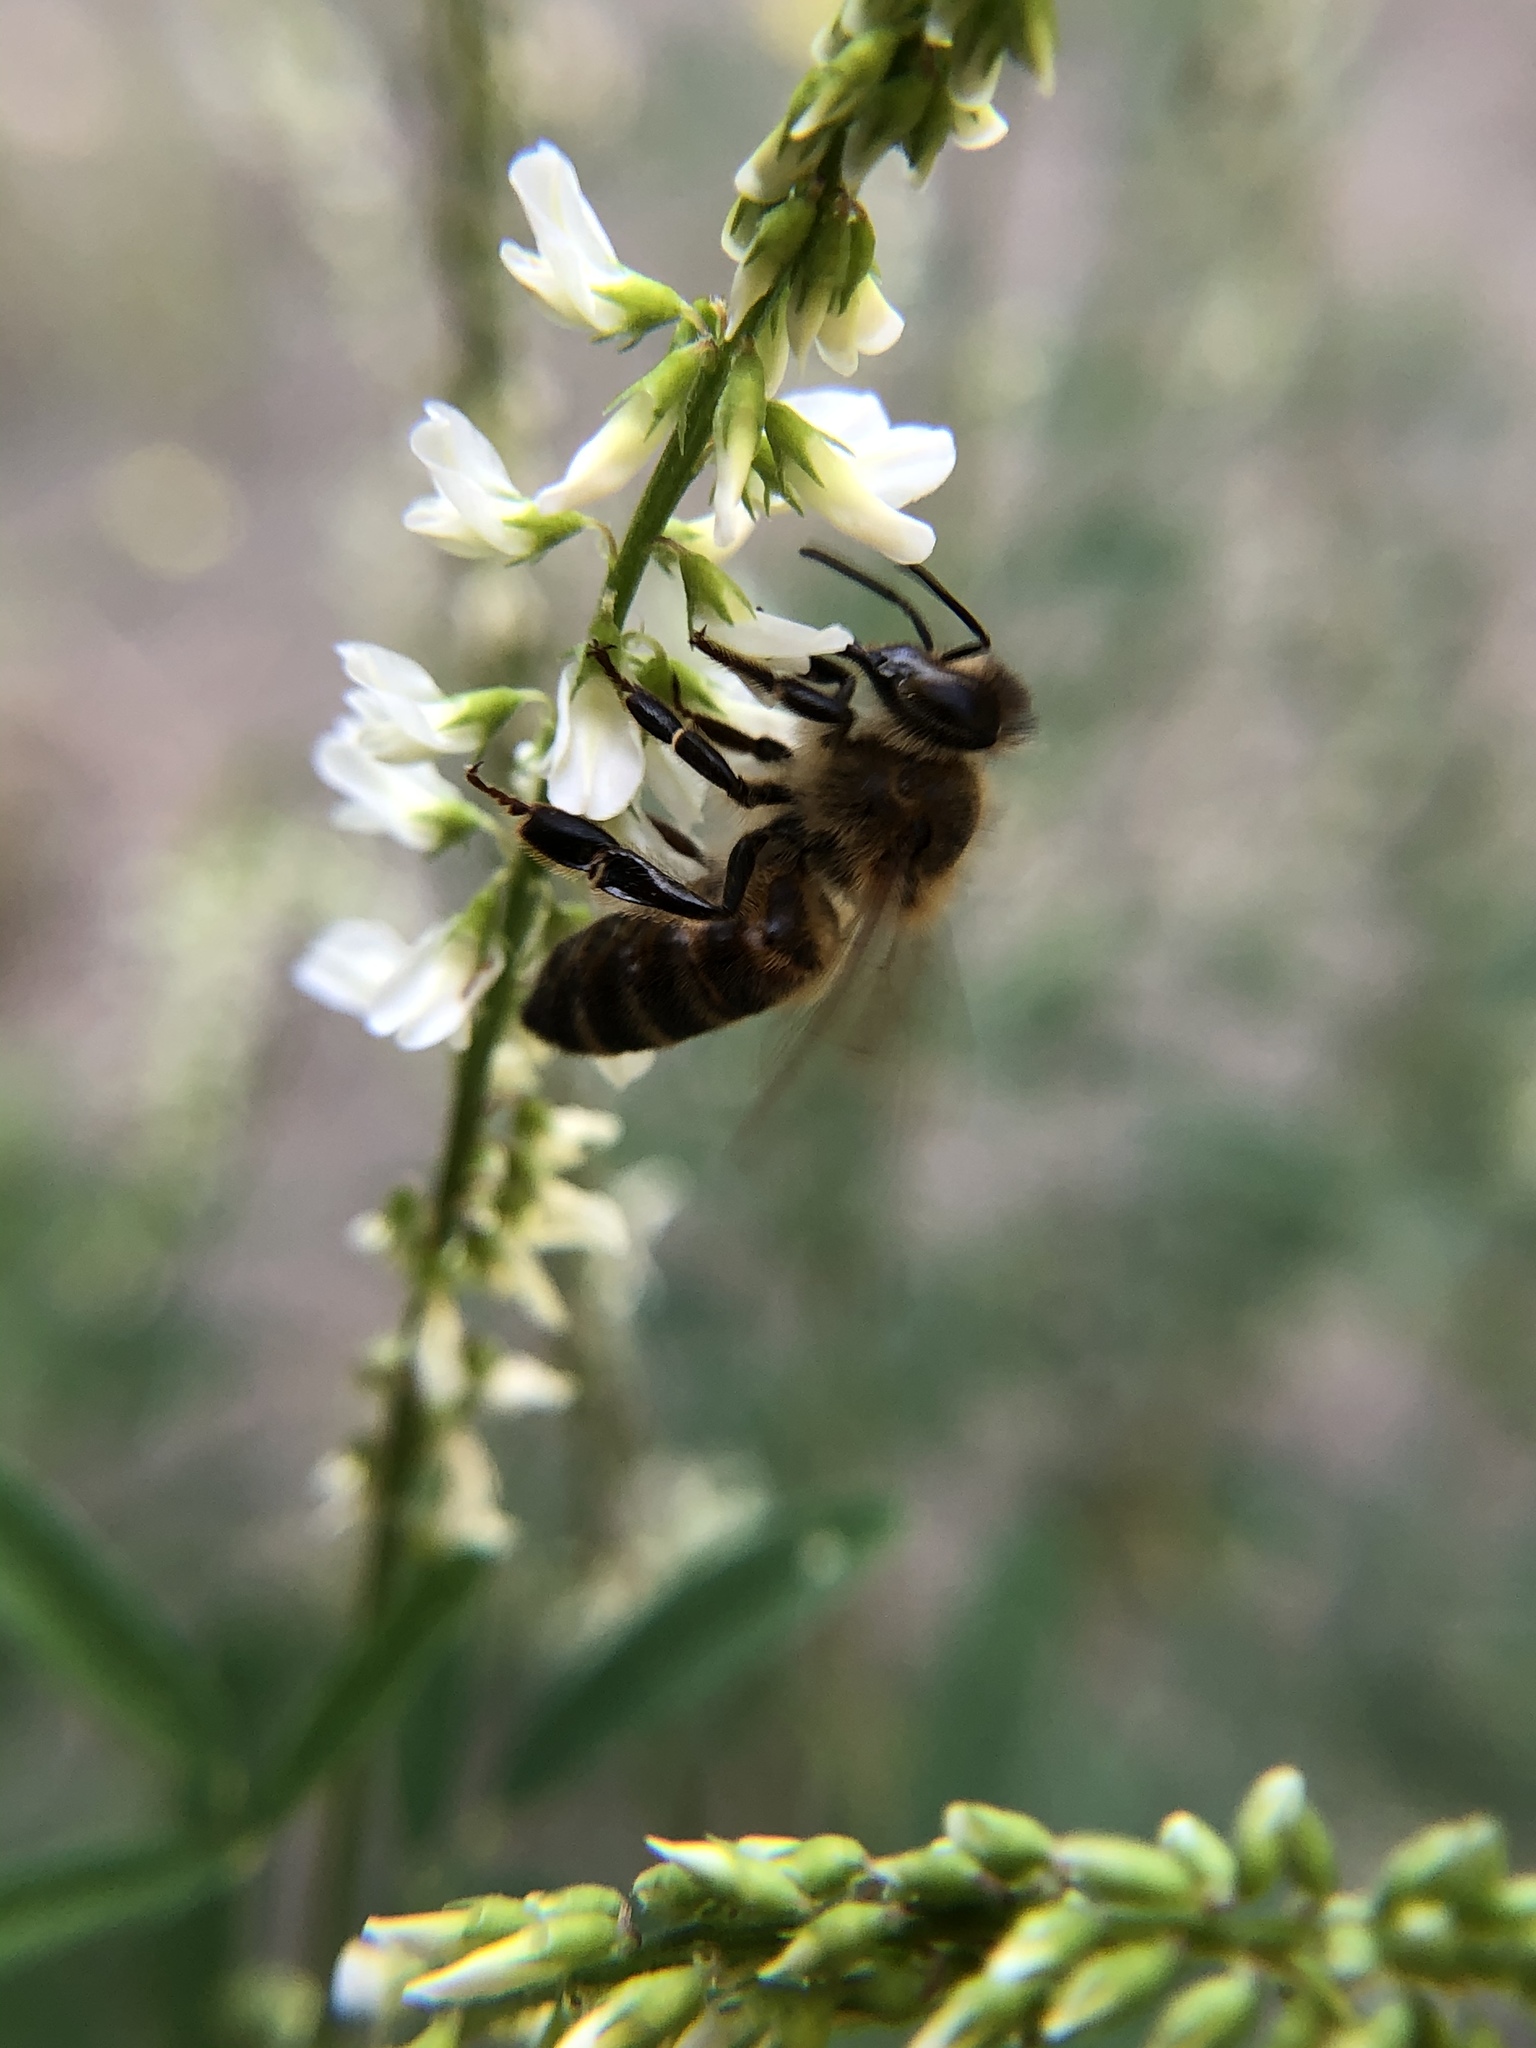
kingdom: Animalia
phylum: Arthropoda
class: Insecta
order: Hymenoptera
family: Apidae
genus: Apis
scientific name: Apis mellifera
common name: Honey bee
